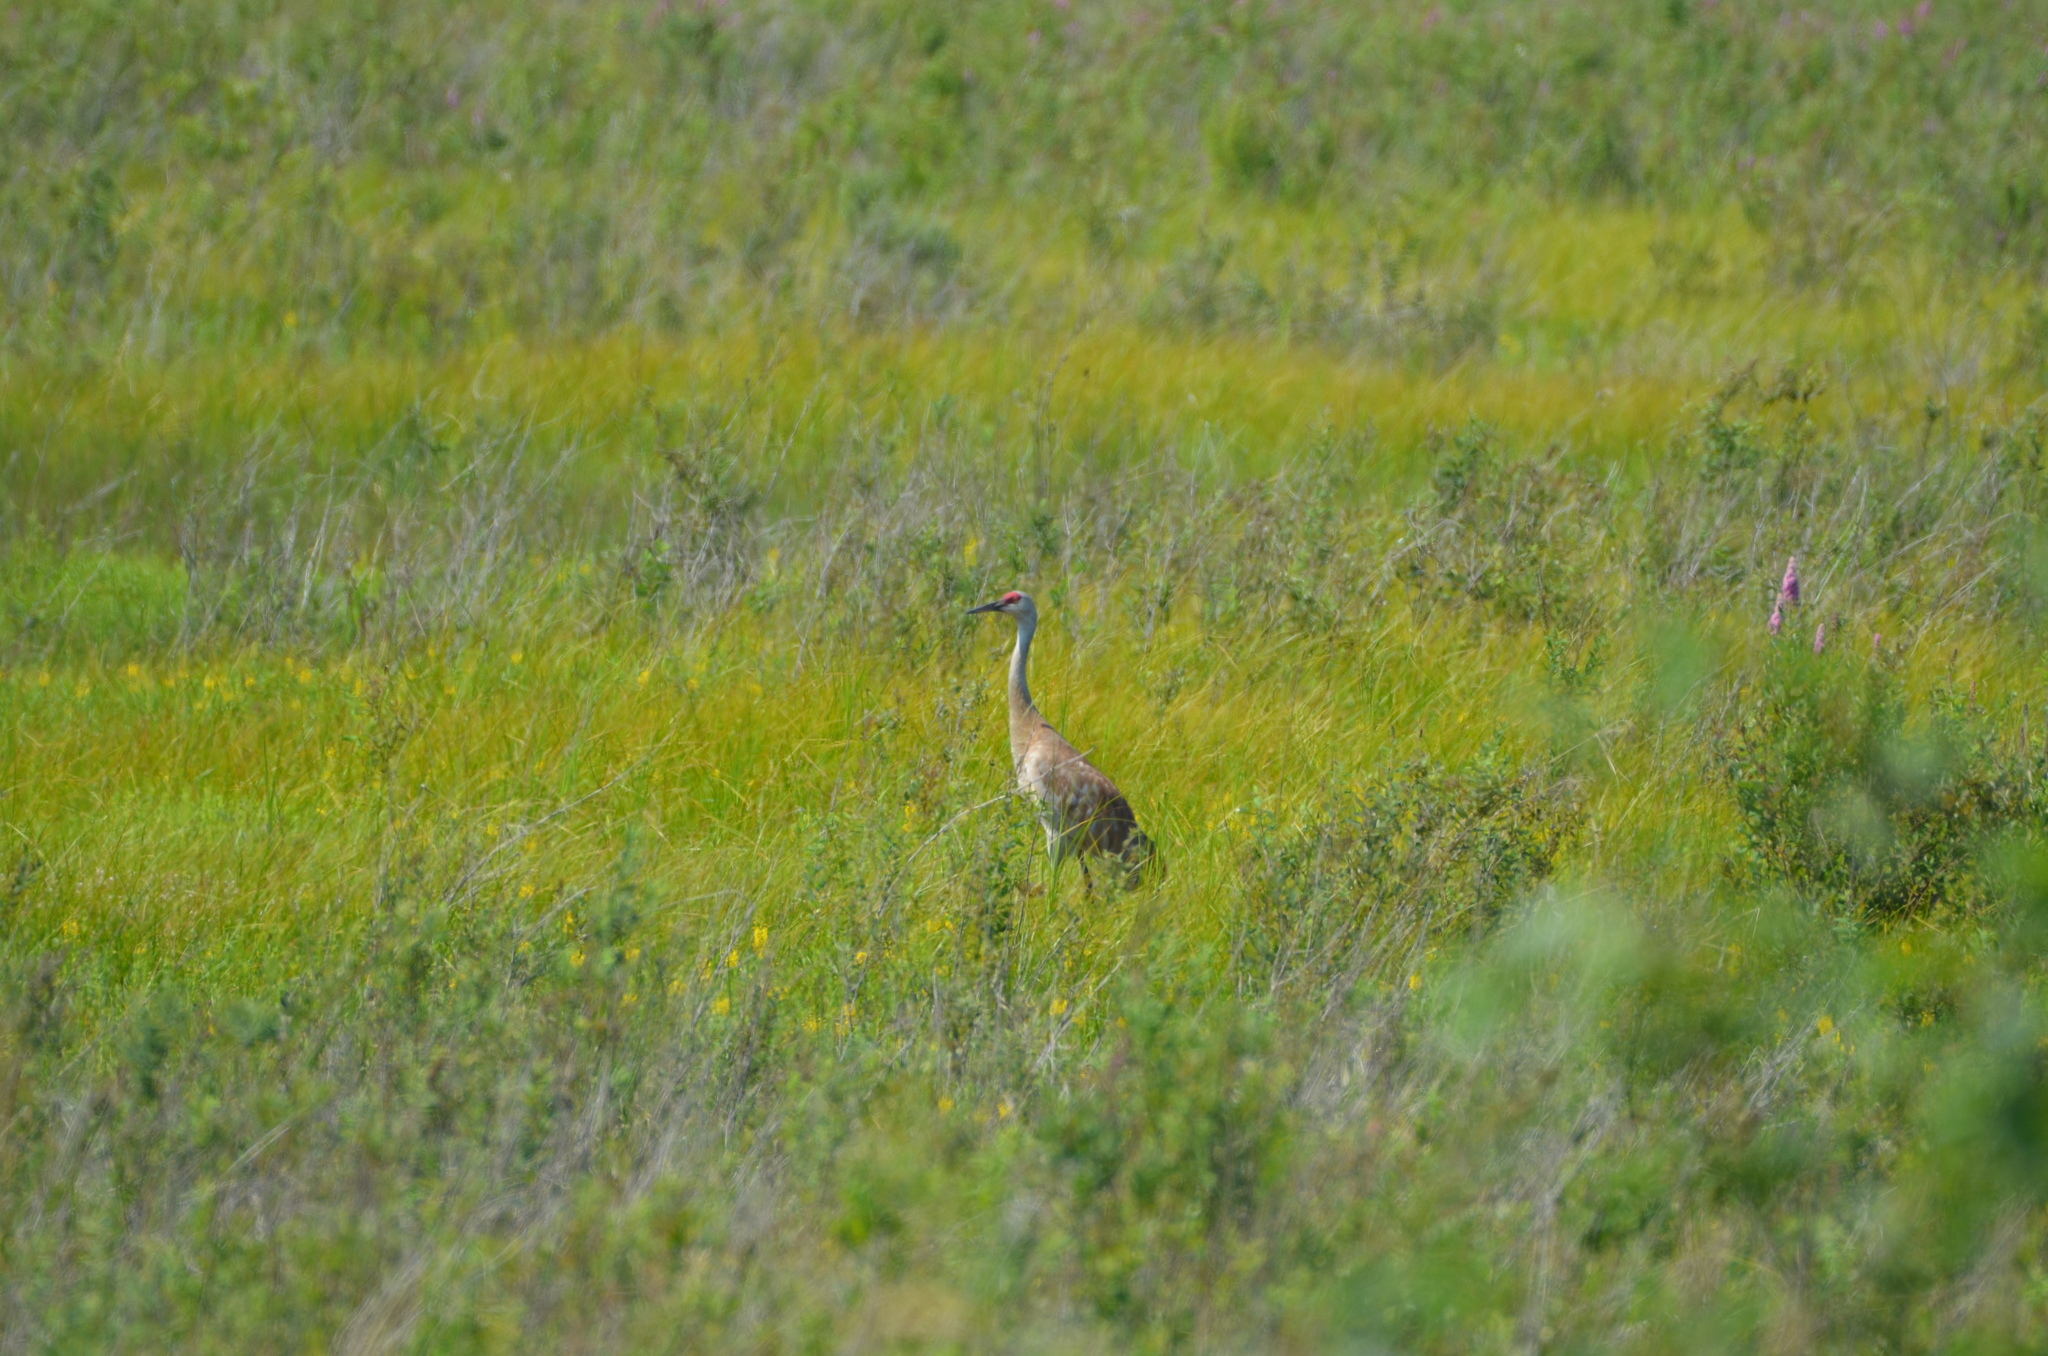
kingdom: Animalia
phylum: Chordata
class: Aves
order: Gruiformes
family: Gruidae
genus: Grus
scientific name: Grus canadensis
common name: Sandhill crane
